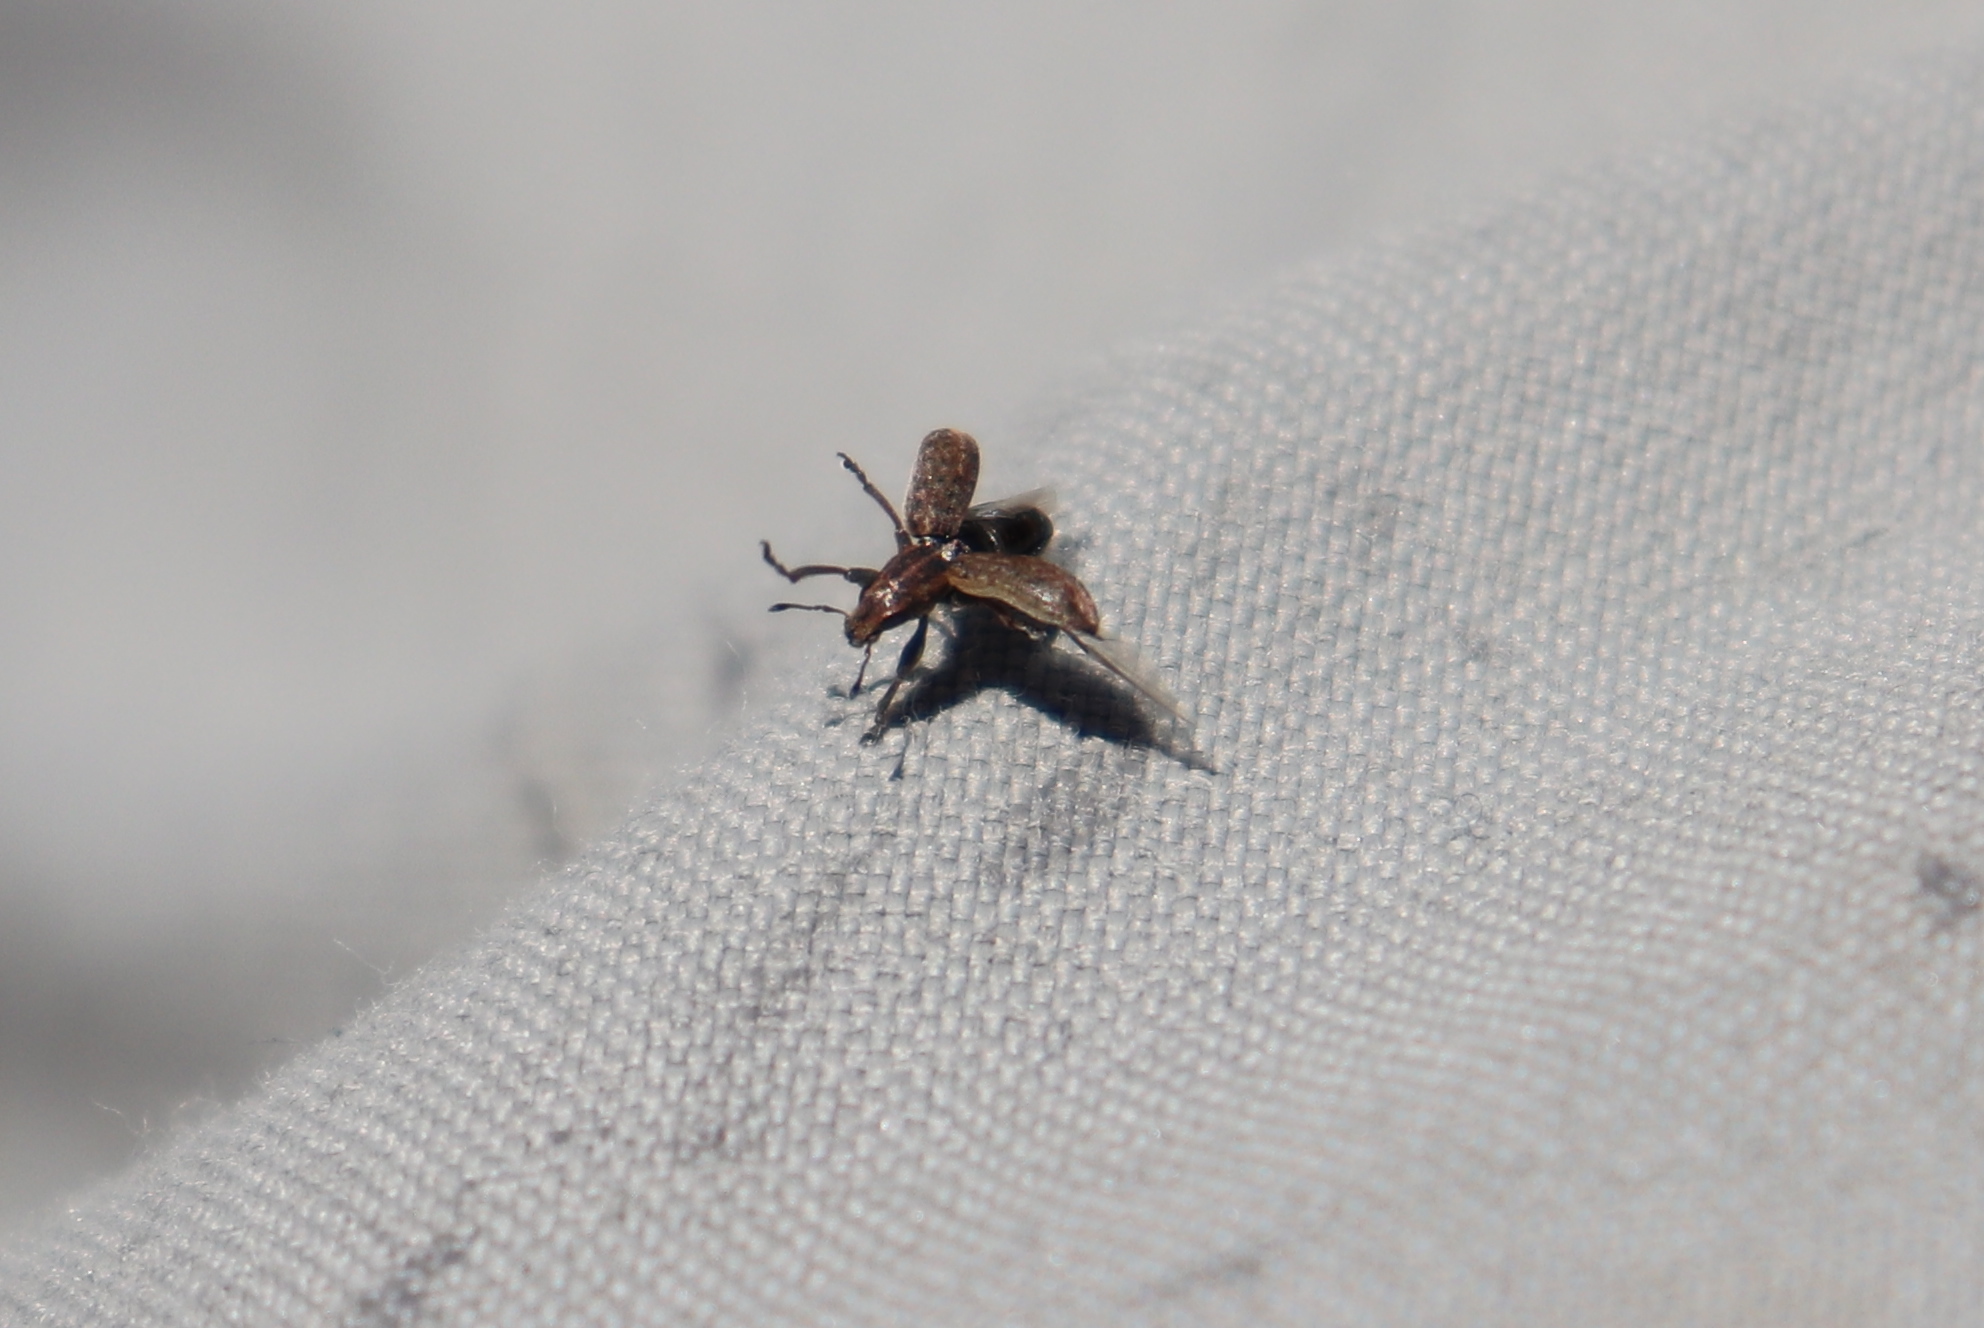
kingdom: Animalia
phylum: Arthropoda
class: Insecta
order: Coleoptera
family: Curculionidae
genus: Sitona
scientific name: Sitona obsoletus
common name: Weevil
